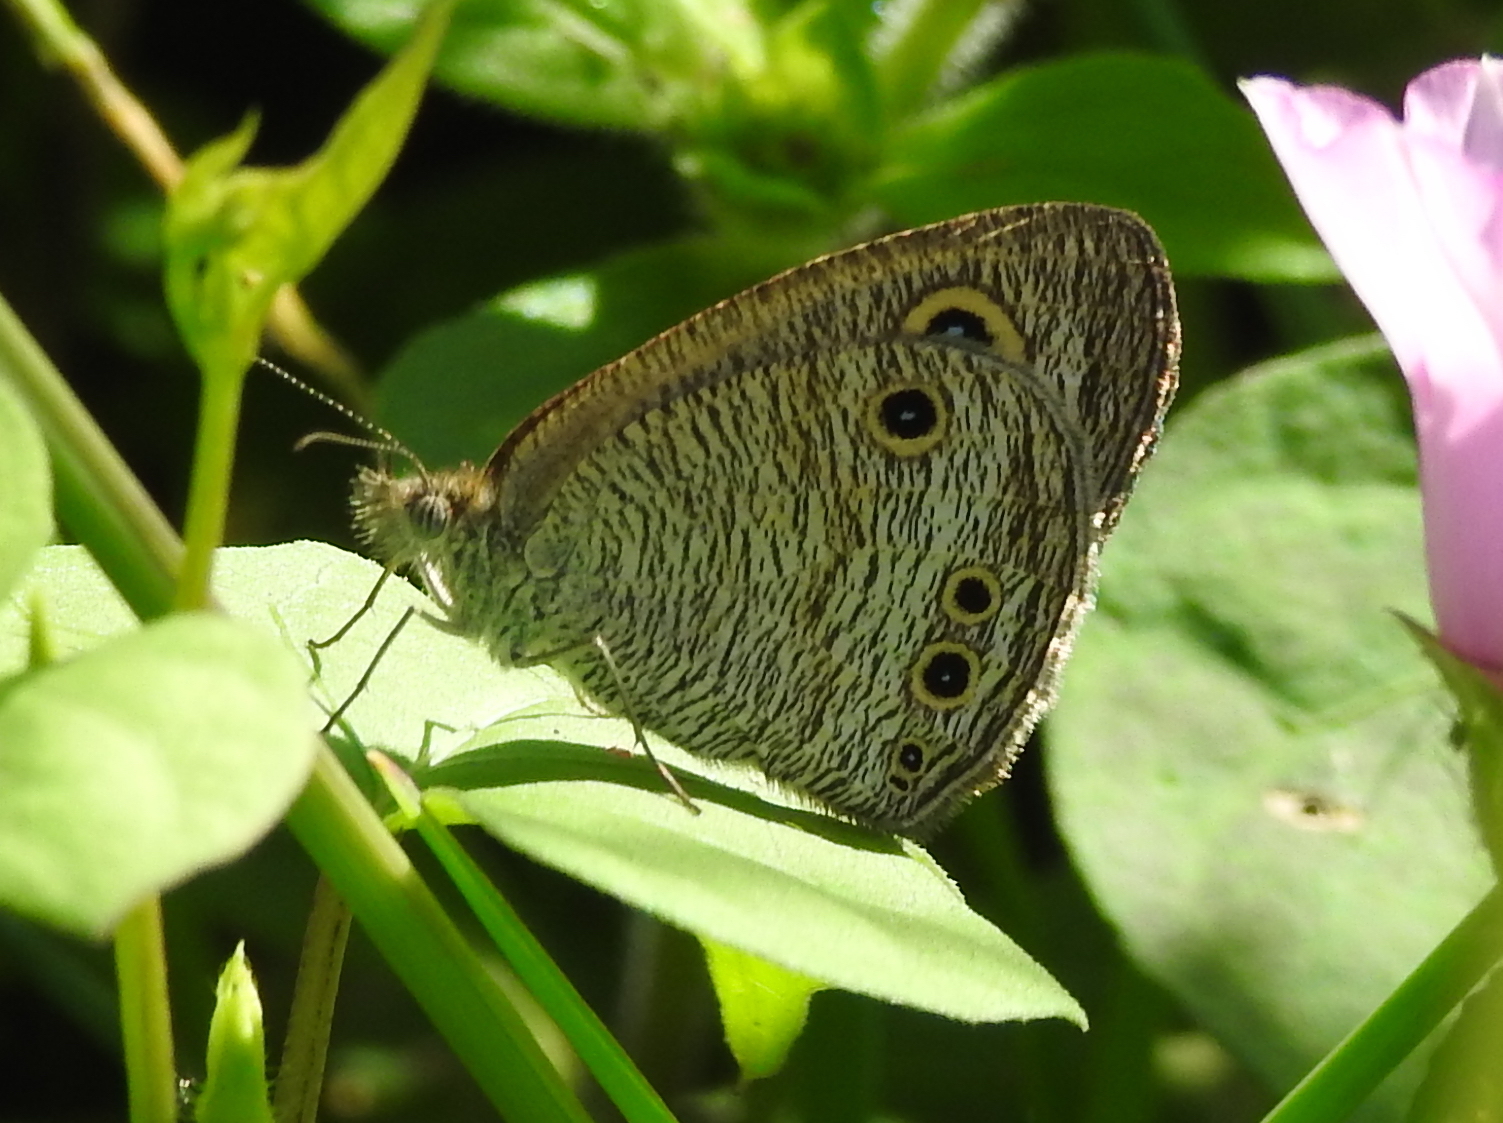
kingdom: Animalia
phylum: Arthropoda
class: Insecta
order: Lepidoptera
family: Nymphalidae
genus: Ypthima
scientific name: Ypthima huebneri
